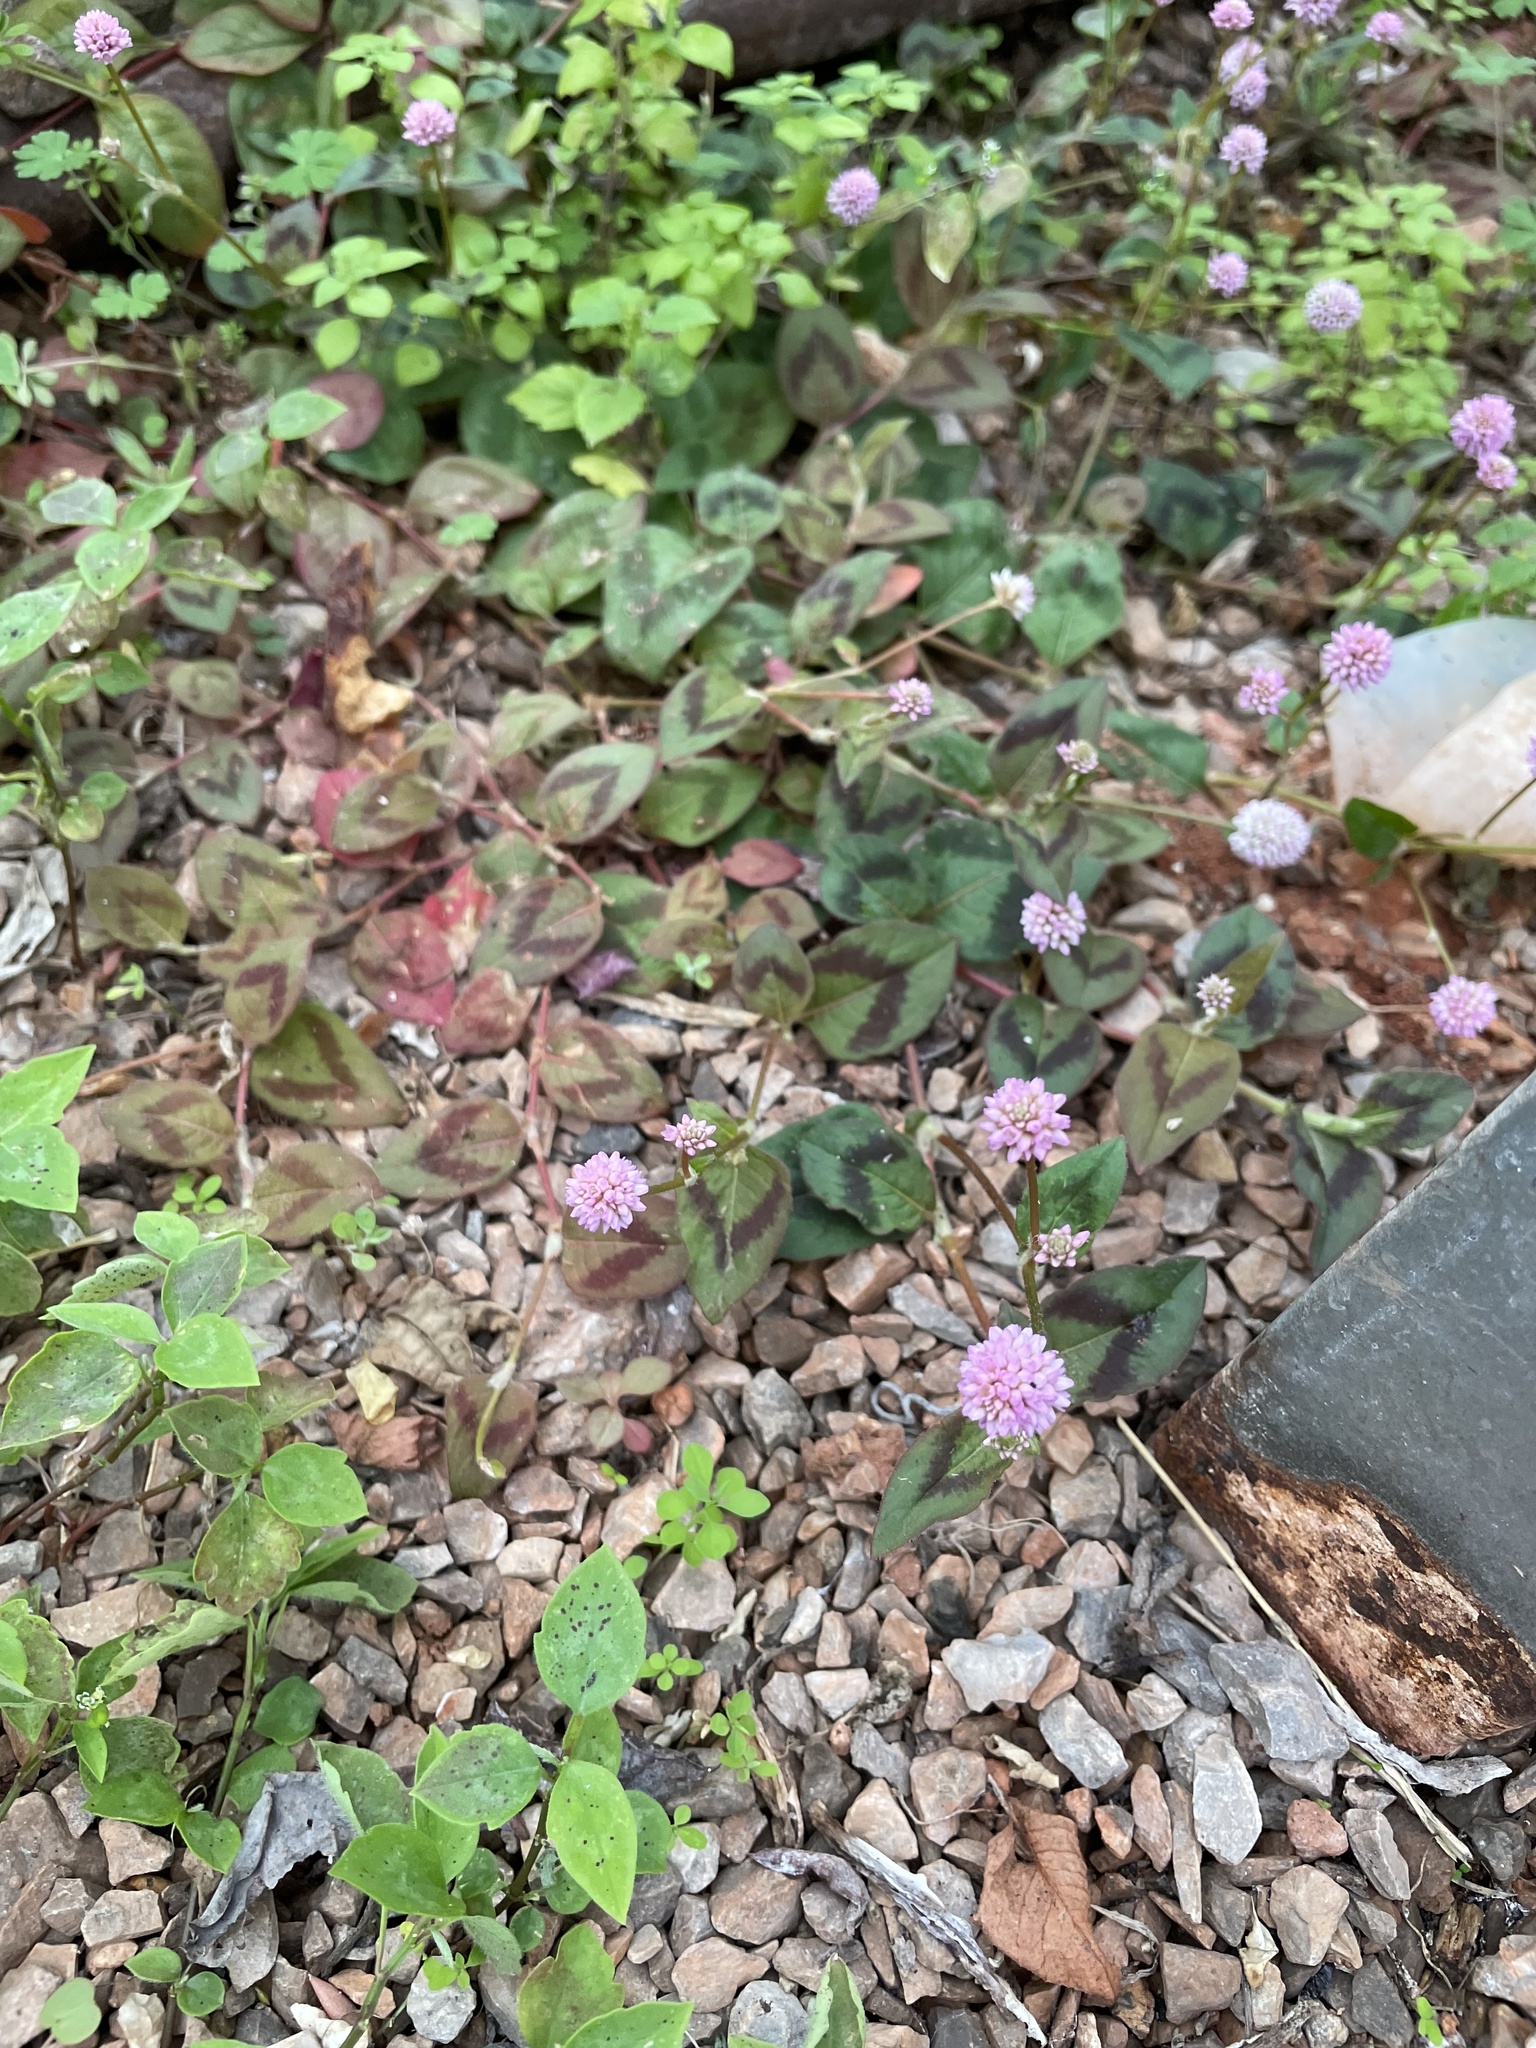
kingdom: Plantae
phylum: Tracheophyta
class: Magnoliopsida
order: Caryophyllales
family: Polygonaceae
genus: Persicaria
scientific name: Persicaria capitata
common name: Pinkhead smartweed
